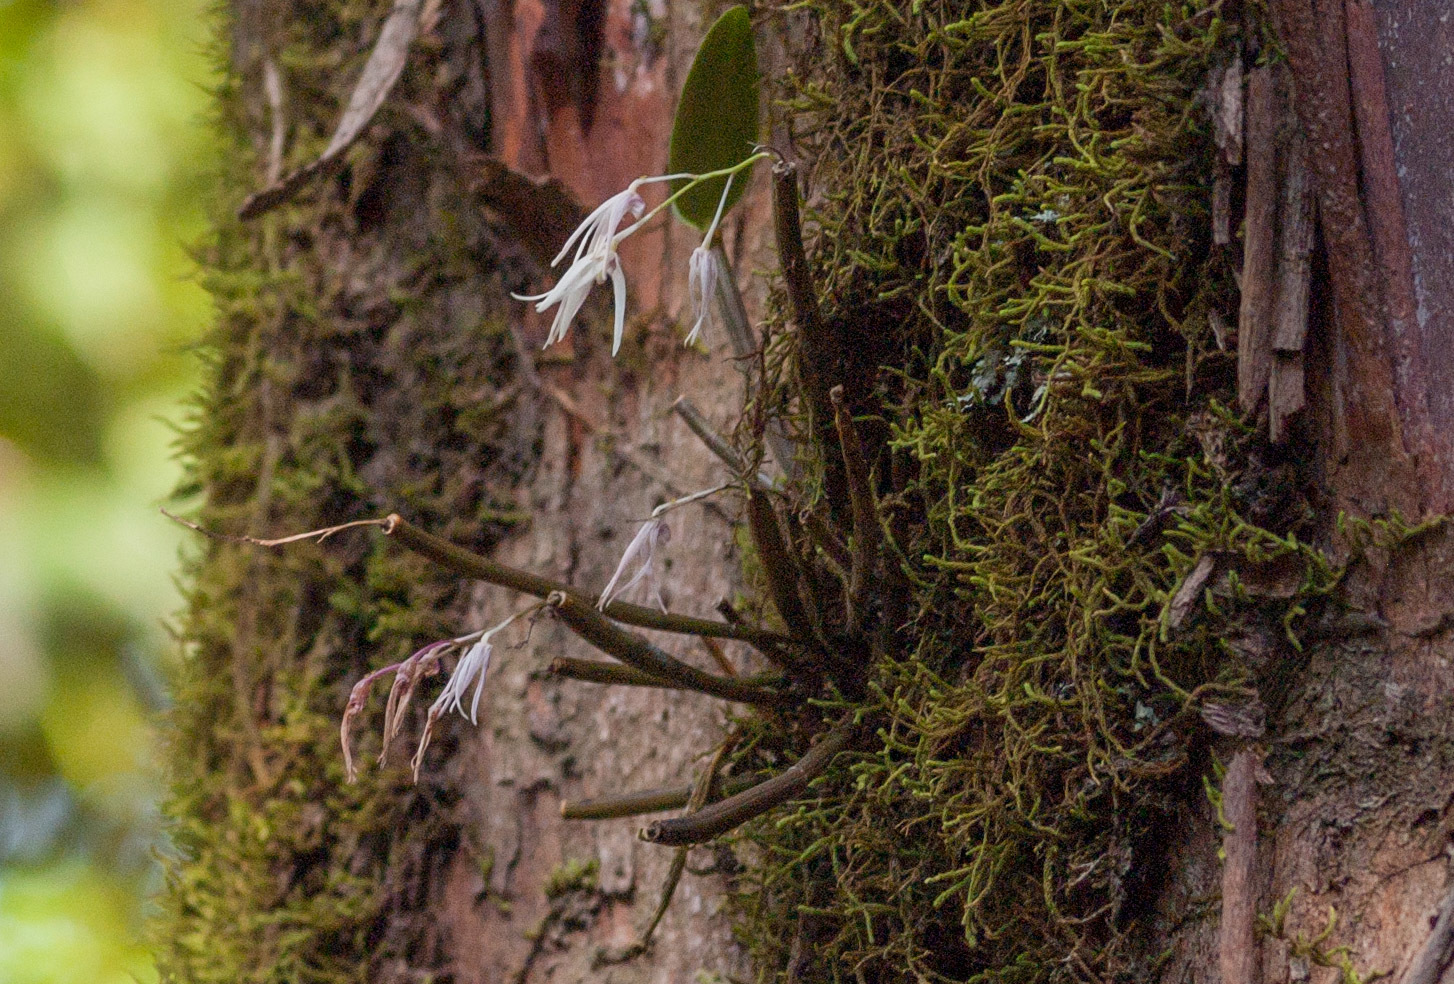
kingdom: Plantae
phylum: Tracheophyta
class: Liliopsida
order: Asparagales
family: Orchidaceae
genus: Dendrobium
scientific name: Dendrobium aemulum
